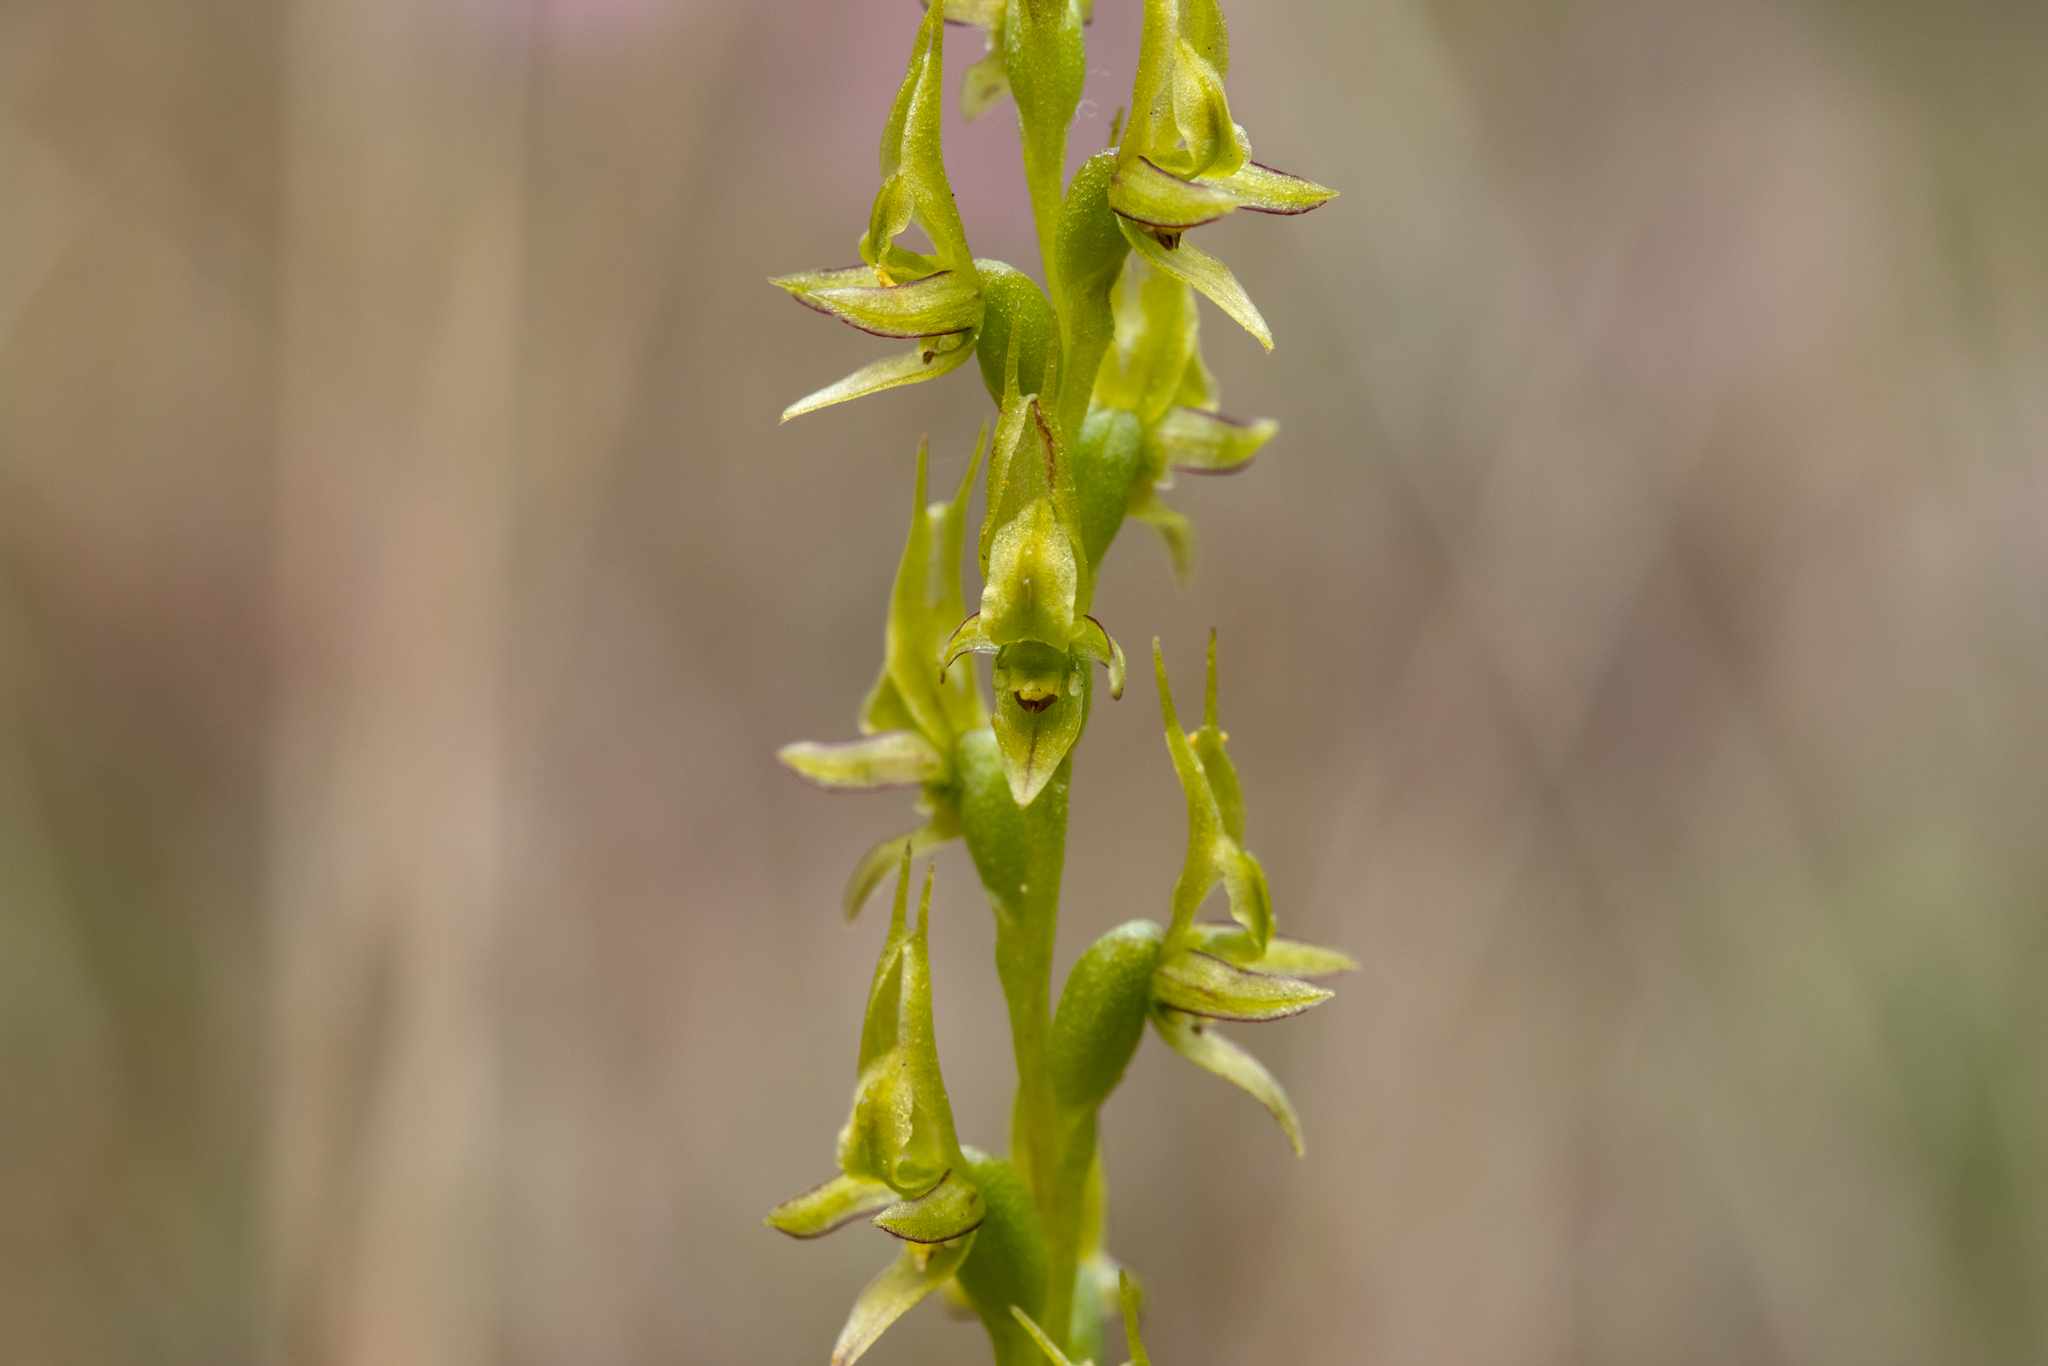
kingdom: Plantae
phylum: Tracheophyta
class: Liliopsida
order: Asparagales
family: Orchidaceae
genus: Prasophyllum
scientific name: Prasophyllum gracile
